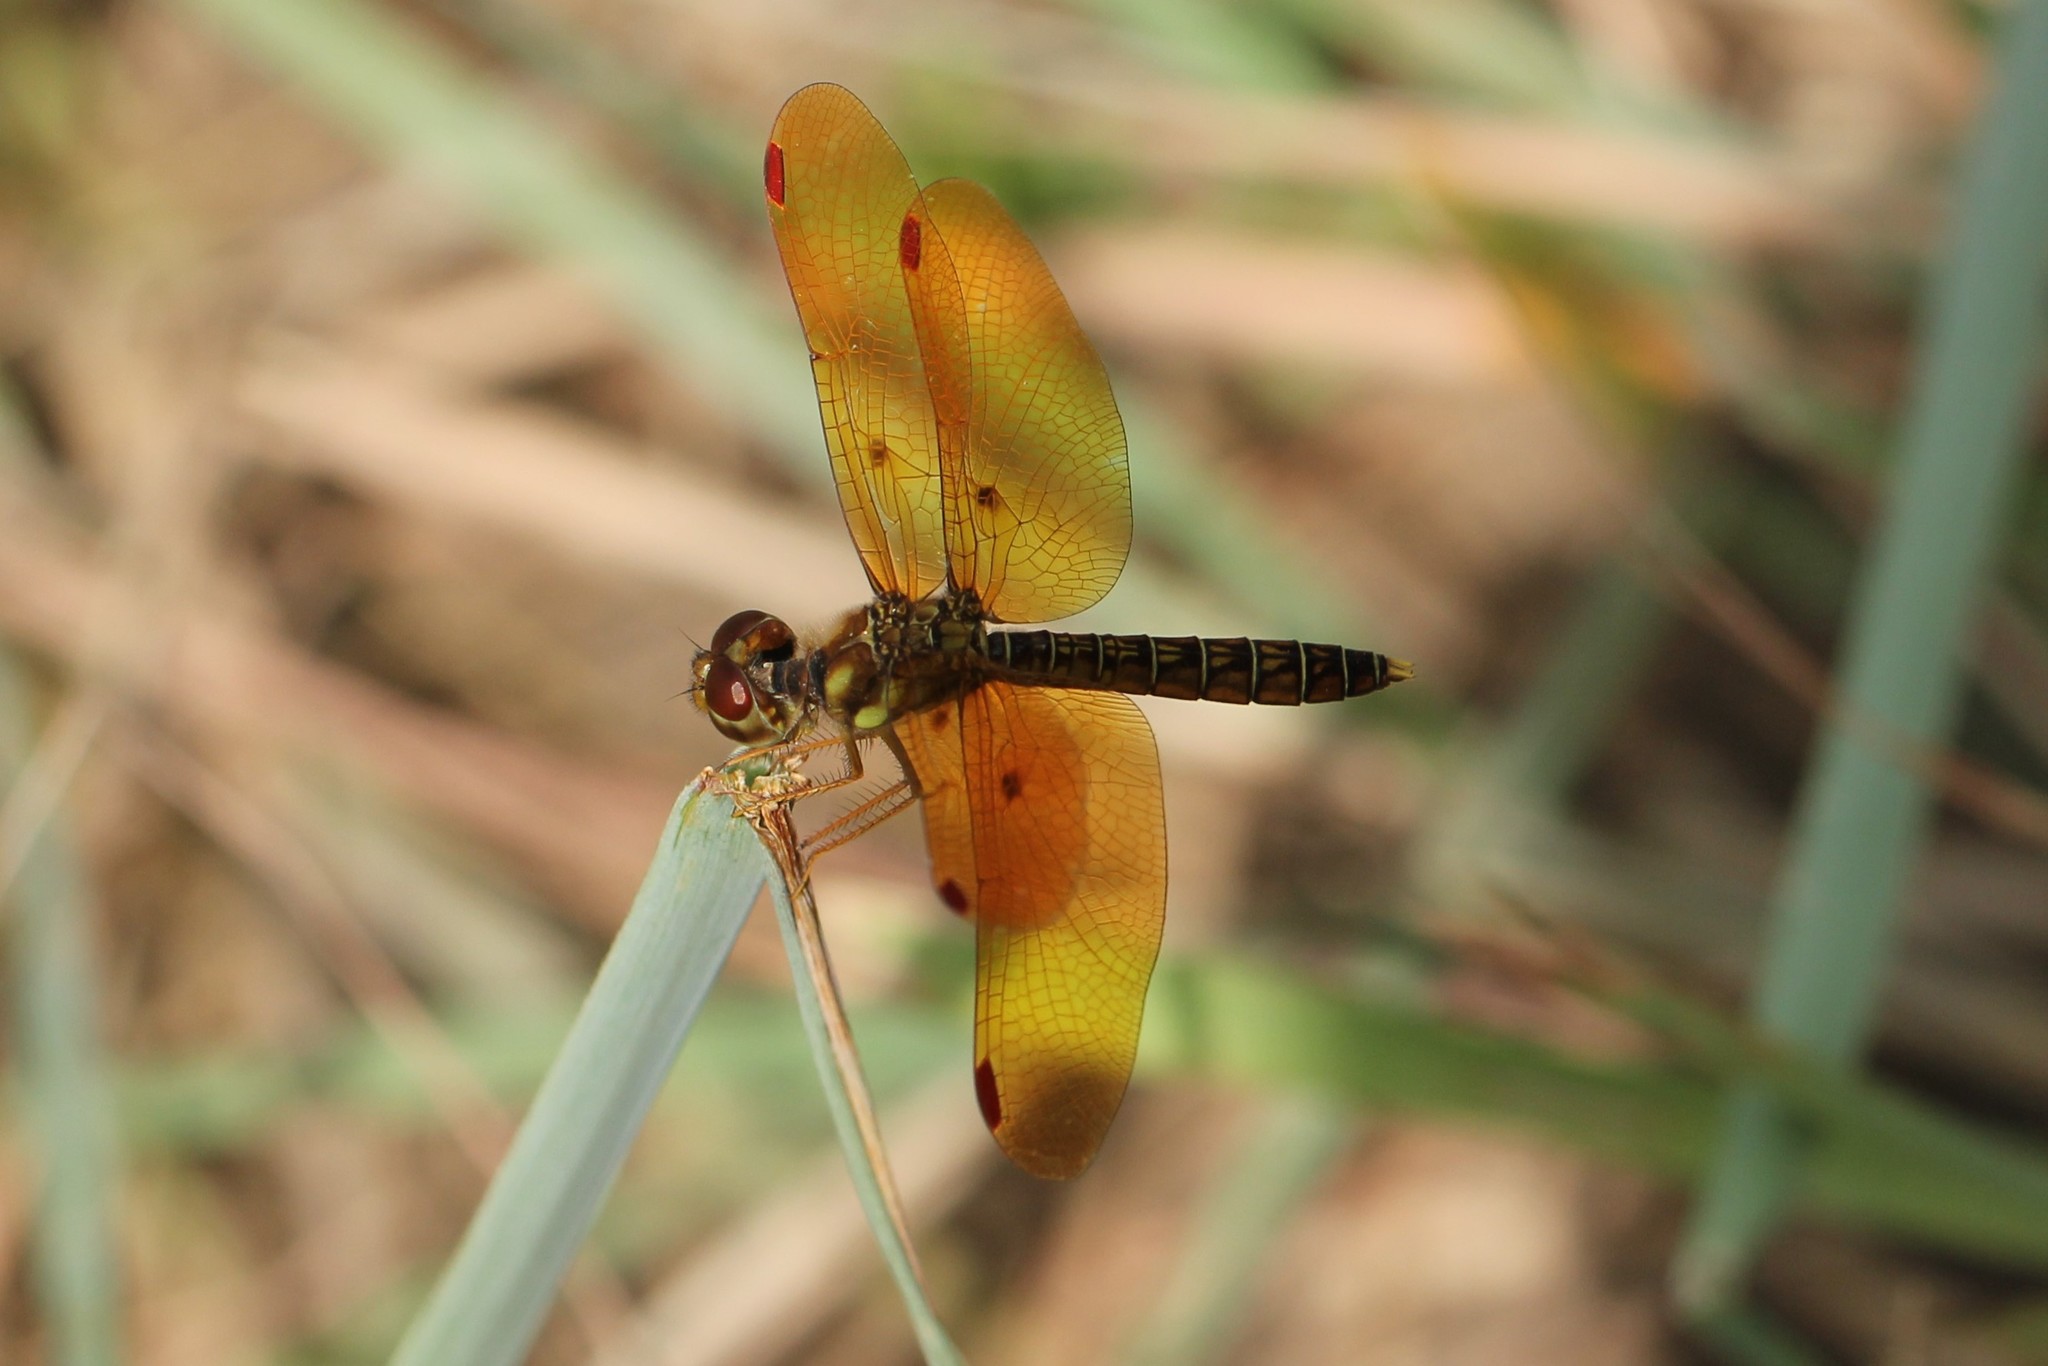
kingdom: Animalia
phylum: Arthropoda
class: Insecta
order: Odonata
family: Libellulidae
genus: Perithemis
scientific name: Perithemis tenera
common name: Eastern amberwing
